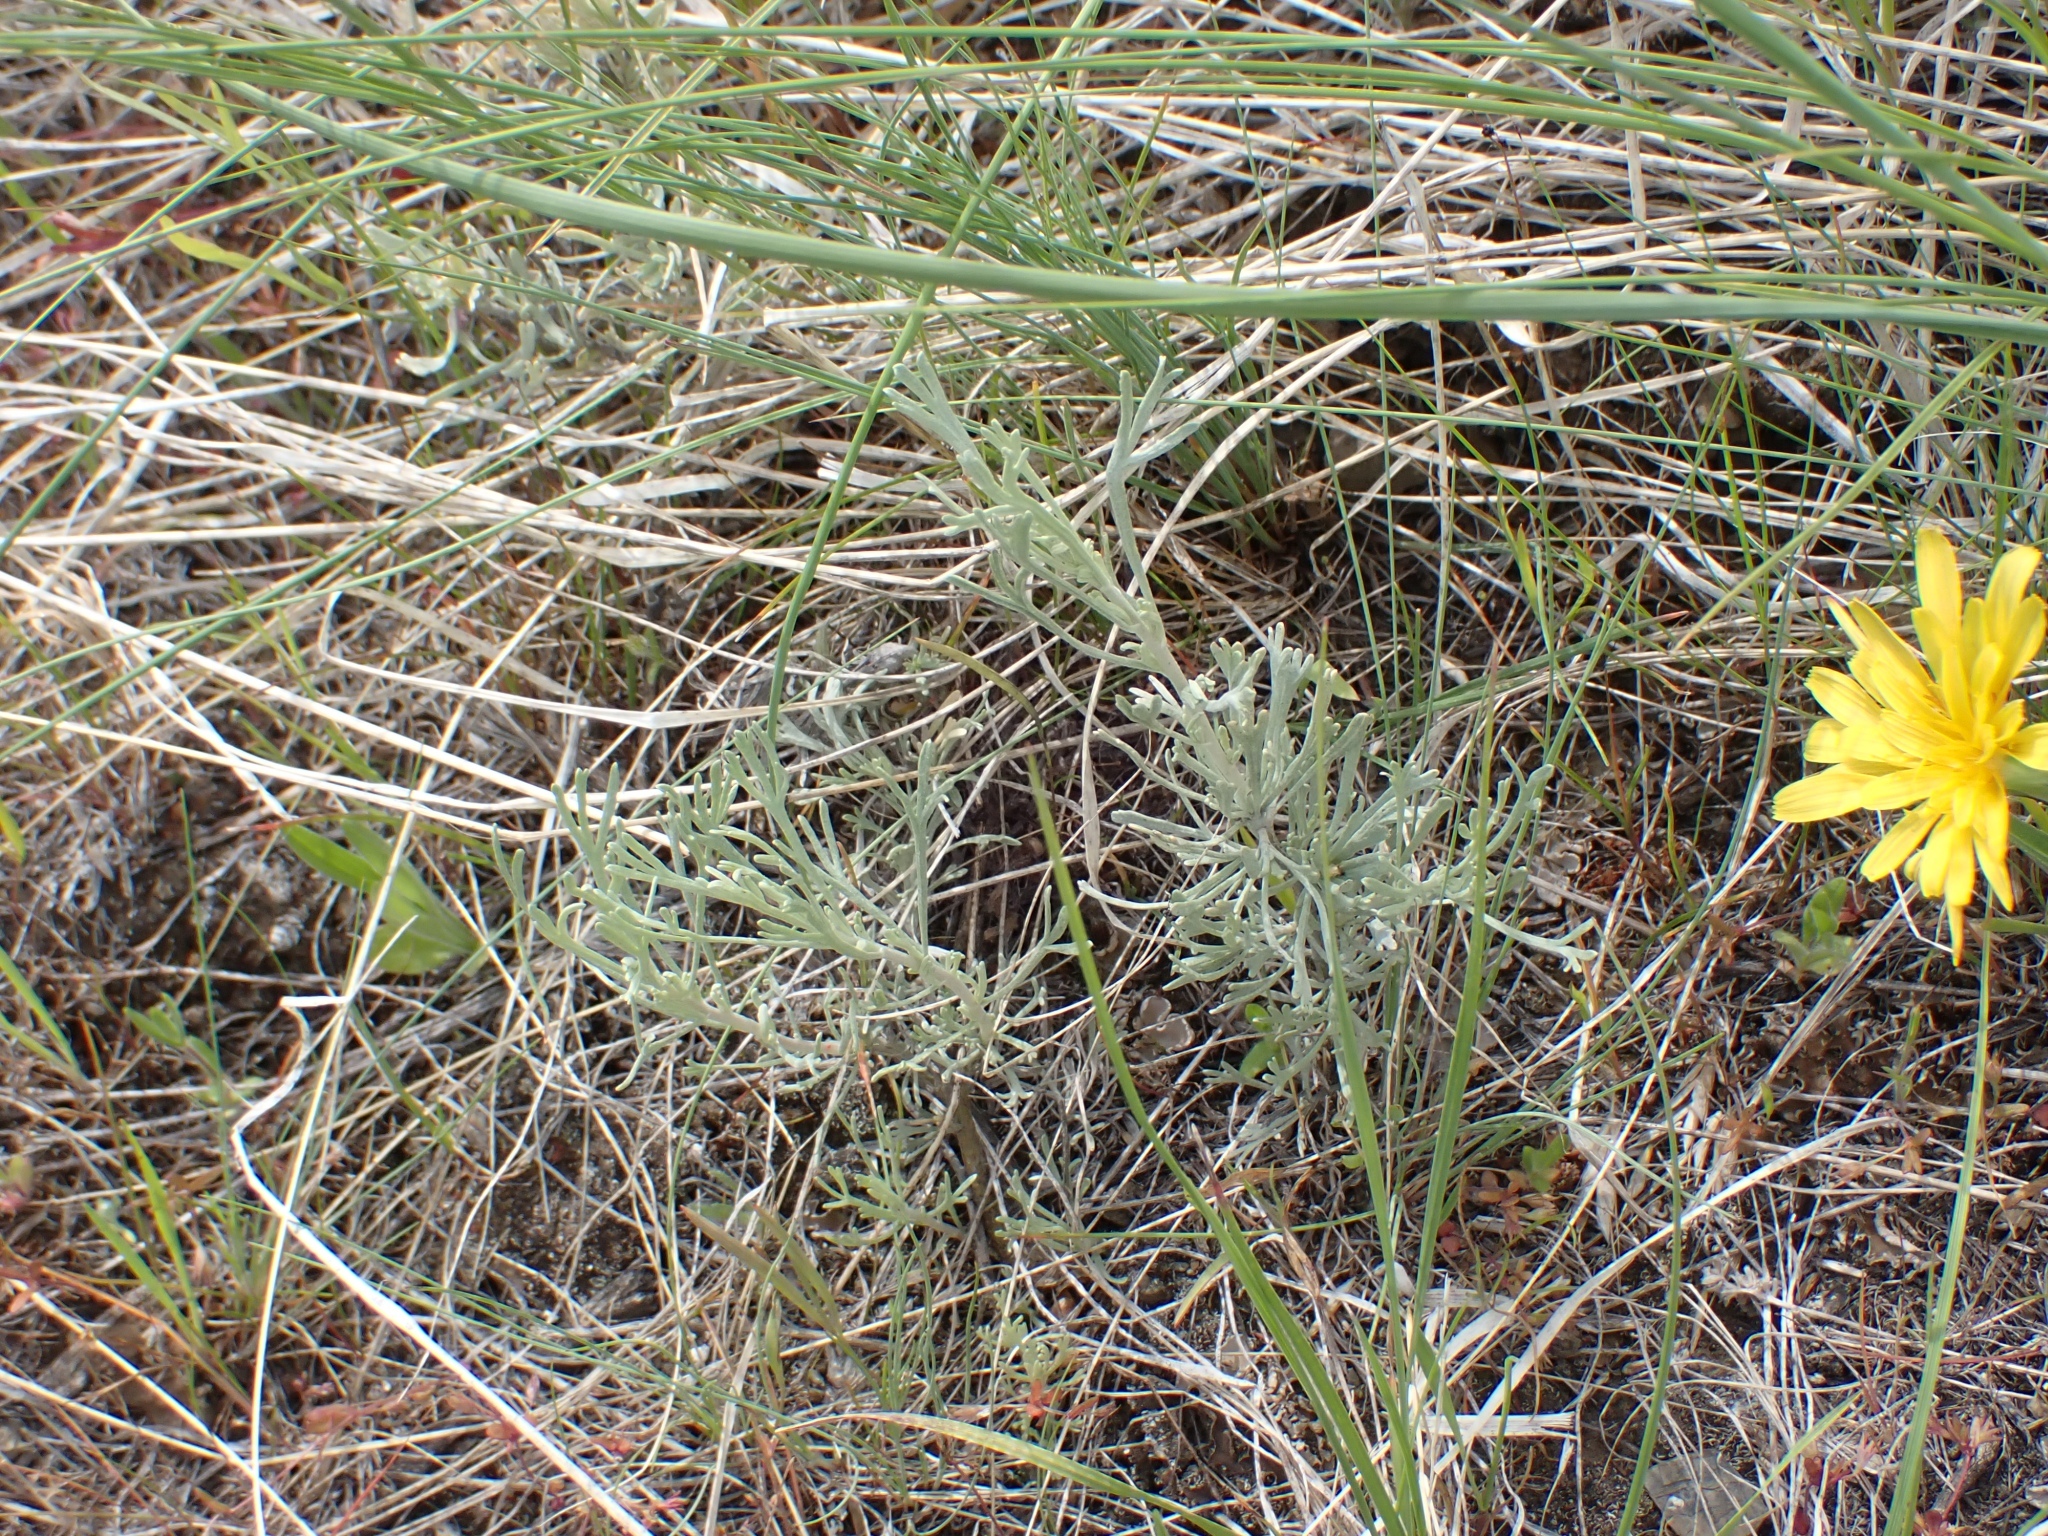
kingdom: Plantae
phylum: Tracheophyta
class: Magnoliopsida
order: Asterales
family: Asteraceae
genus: Artemisia
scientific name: Artemisia tripartita
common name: Three-tip sagebrush
